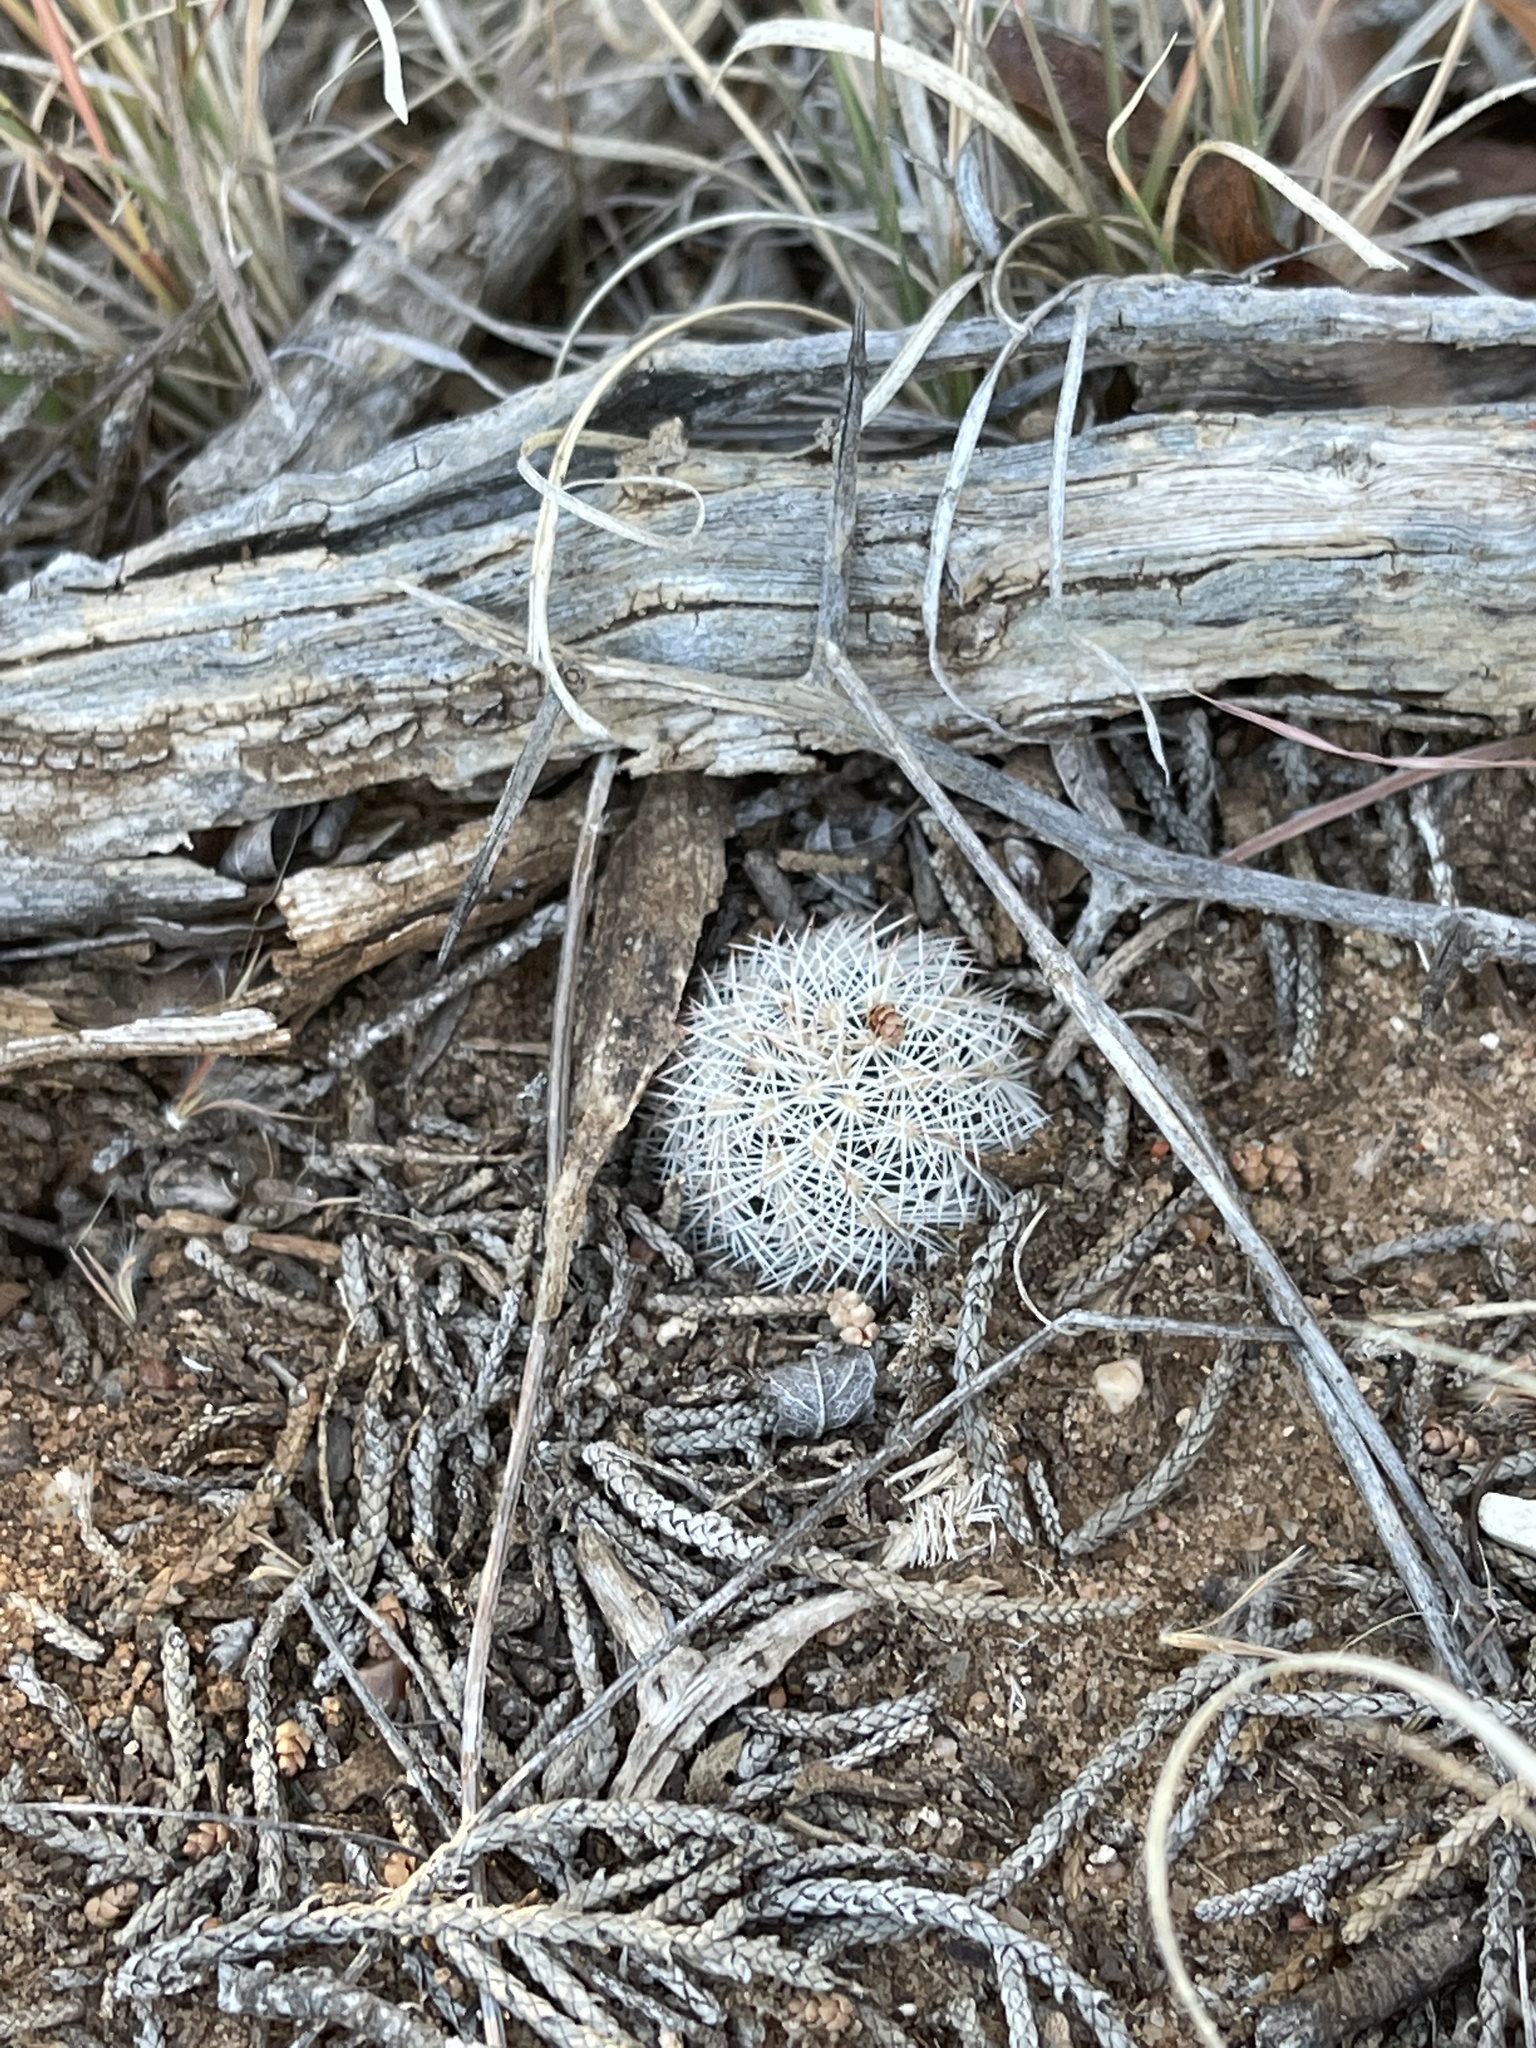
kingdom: Plantae
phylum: Tracheophyta
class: Magnoliopsida
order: Caryophyllales
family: Cactaceae
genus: Echinocereus
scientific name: Echinocereus reichenbachii
